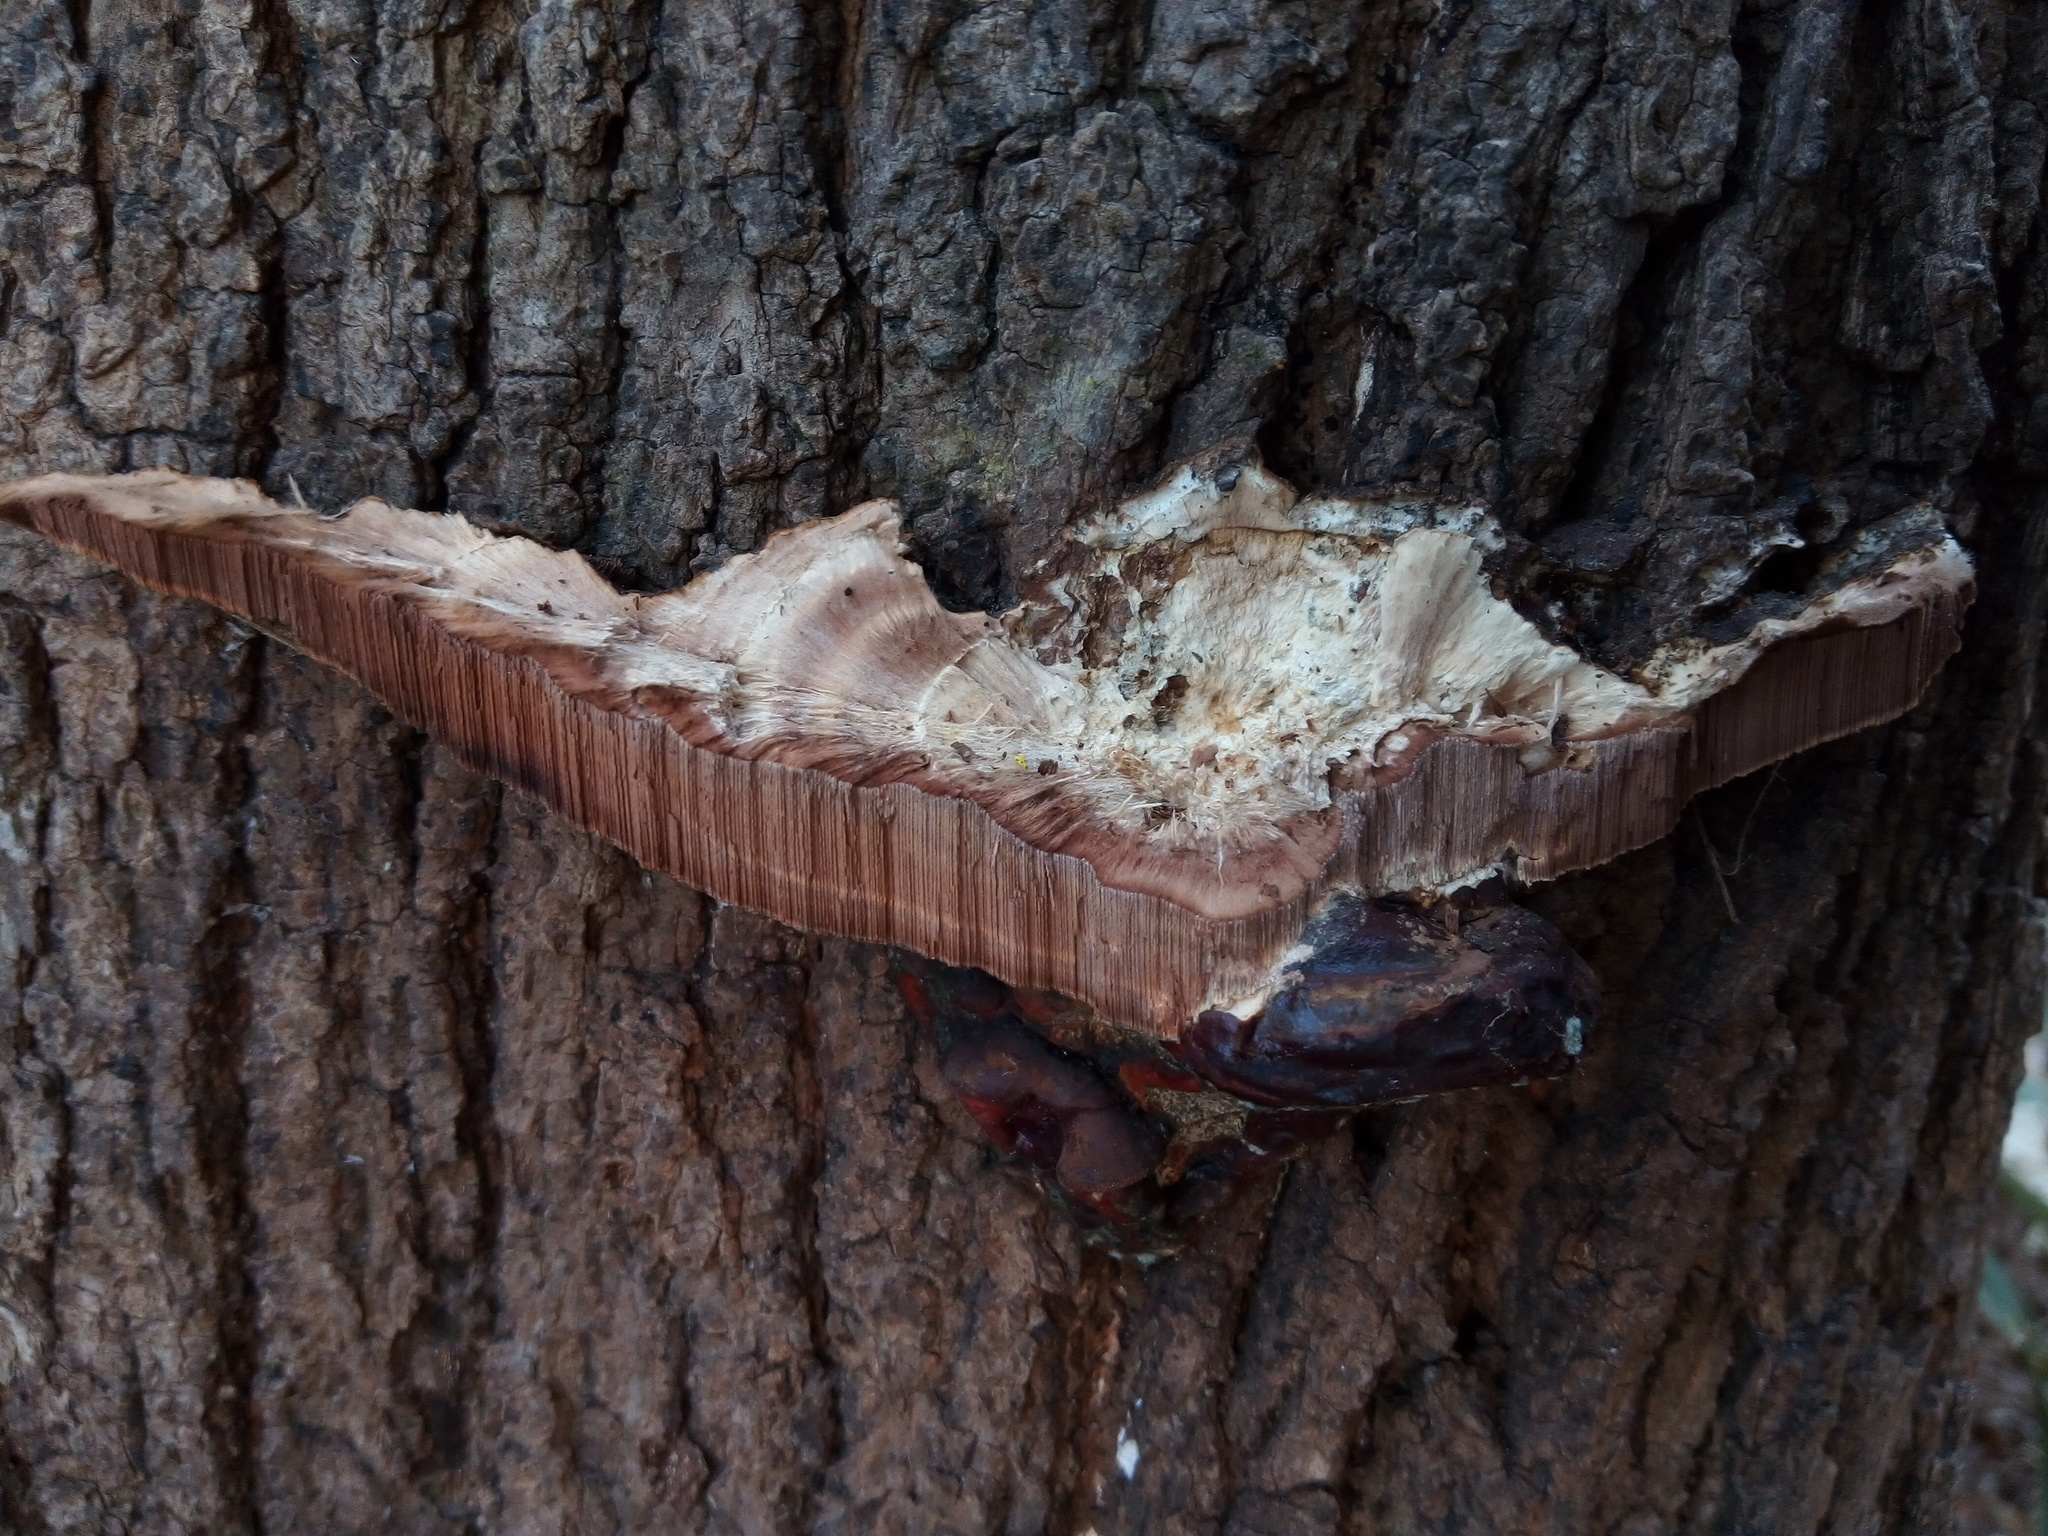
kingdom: Fungi
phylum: Basidiomycota
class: Agaricomycetes
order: Polyporales
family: Polyporaceae
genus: Ganoderma
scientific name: Ganoderma resinaceum
